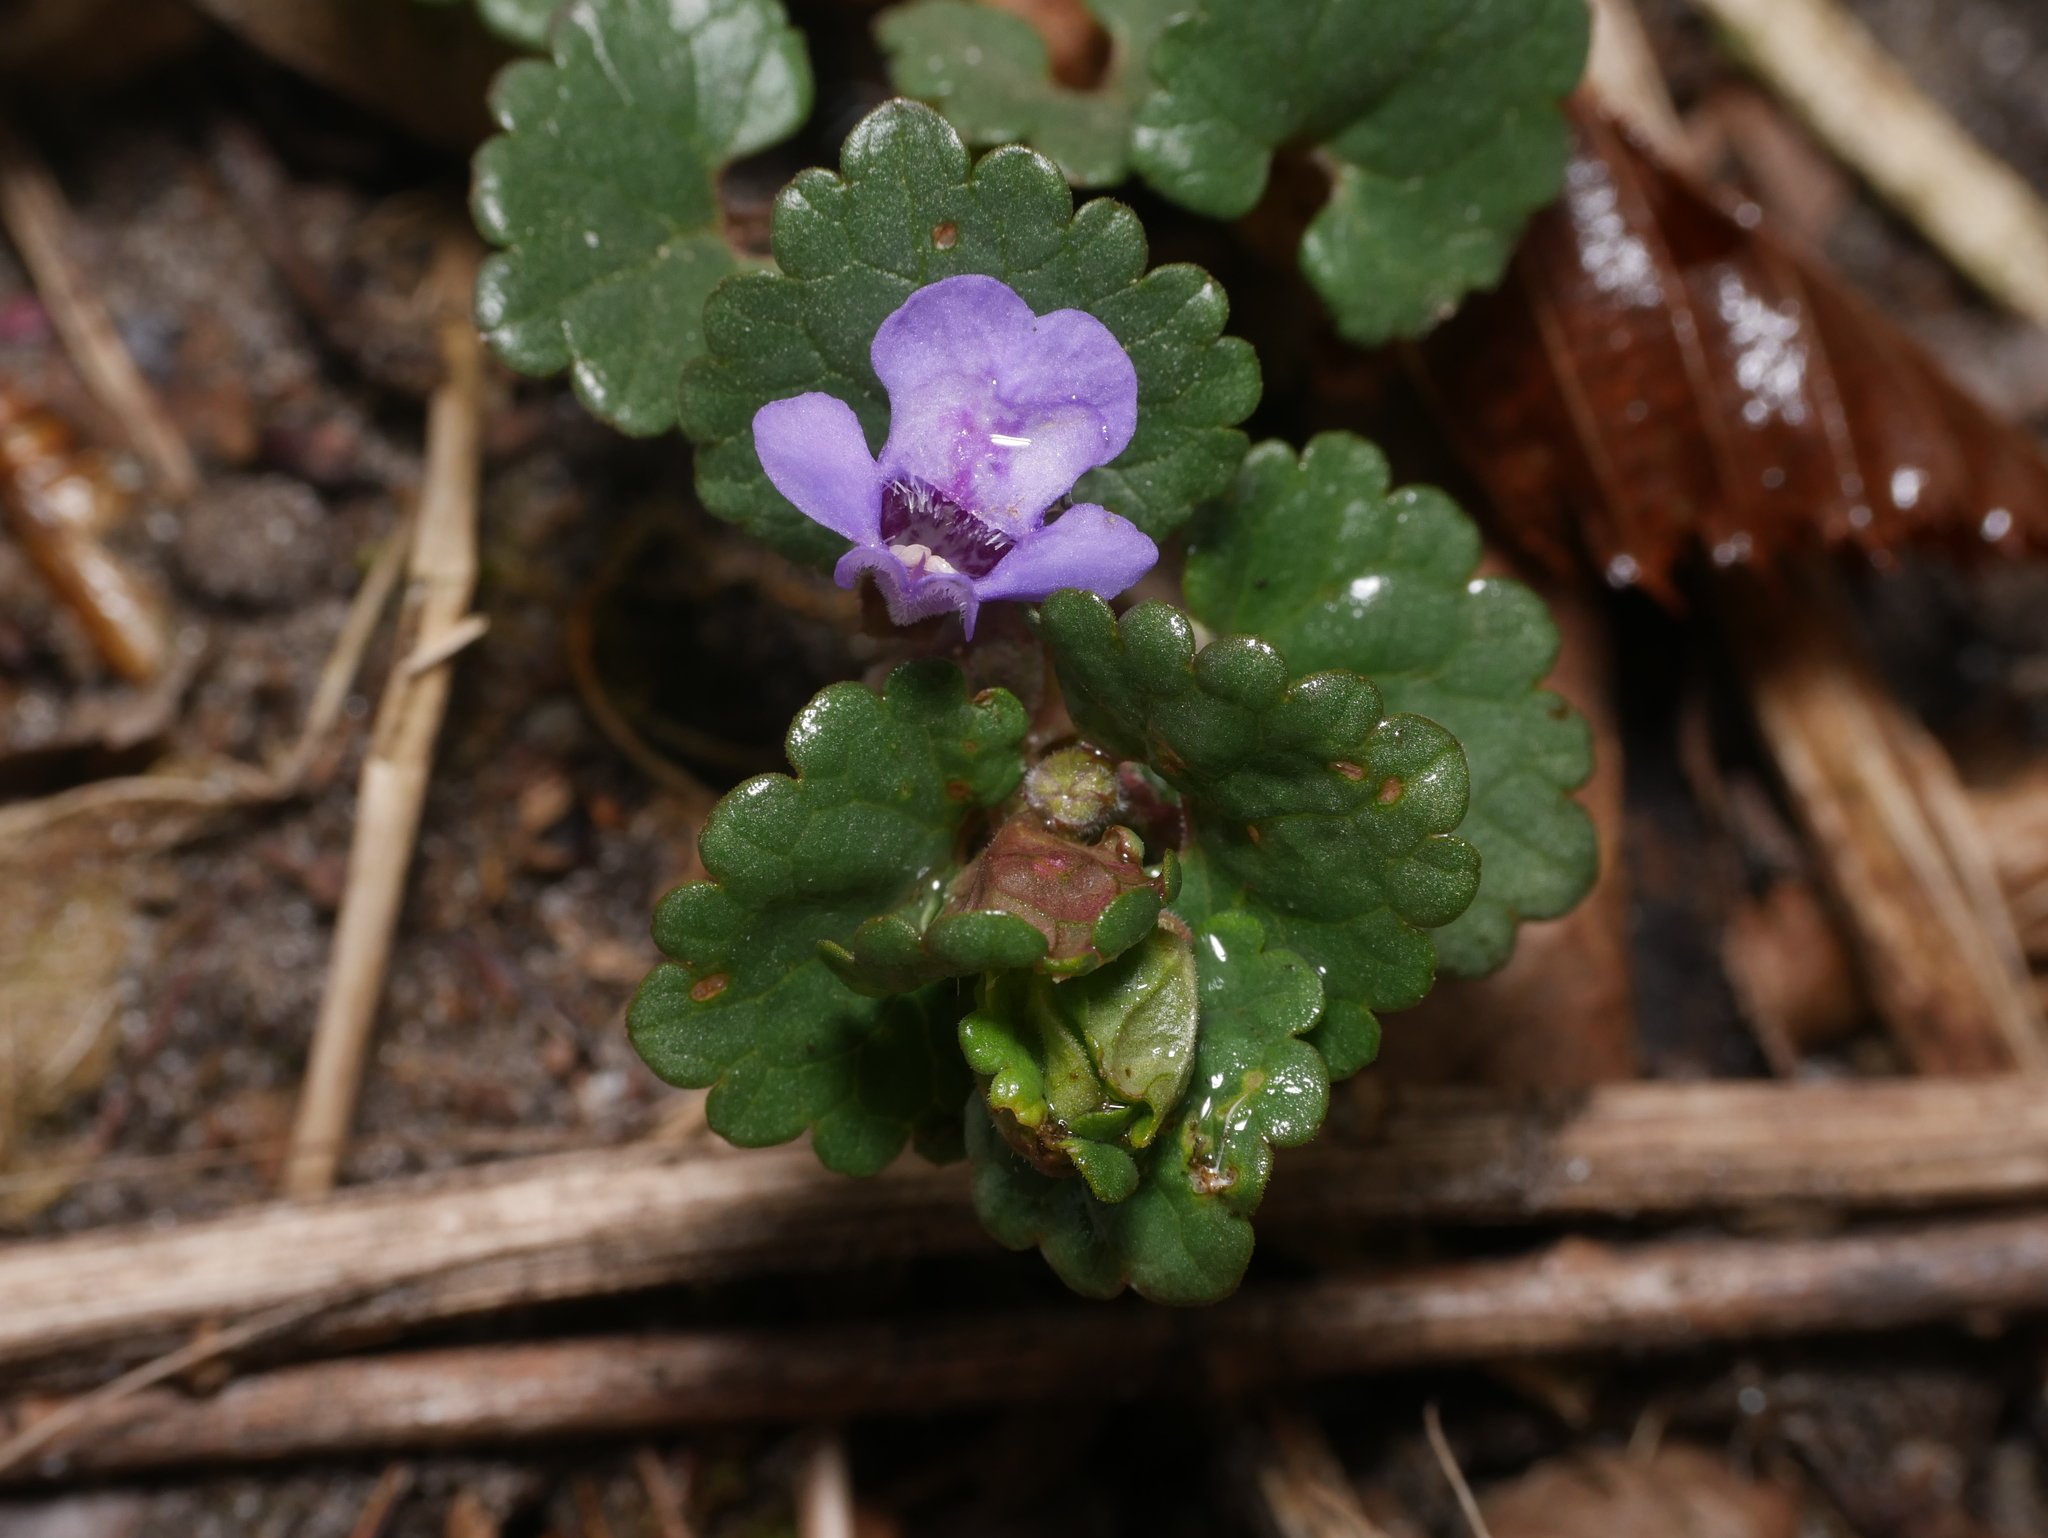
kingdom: Plantae
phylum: Tracheophyta
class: Magnoliopsida
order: Lamiales
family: Lamiaceae
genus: Glechoma
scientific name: Glechoma hederacea
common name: Ground ivy
